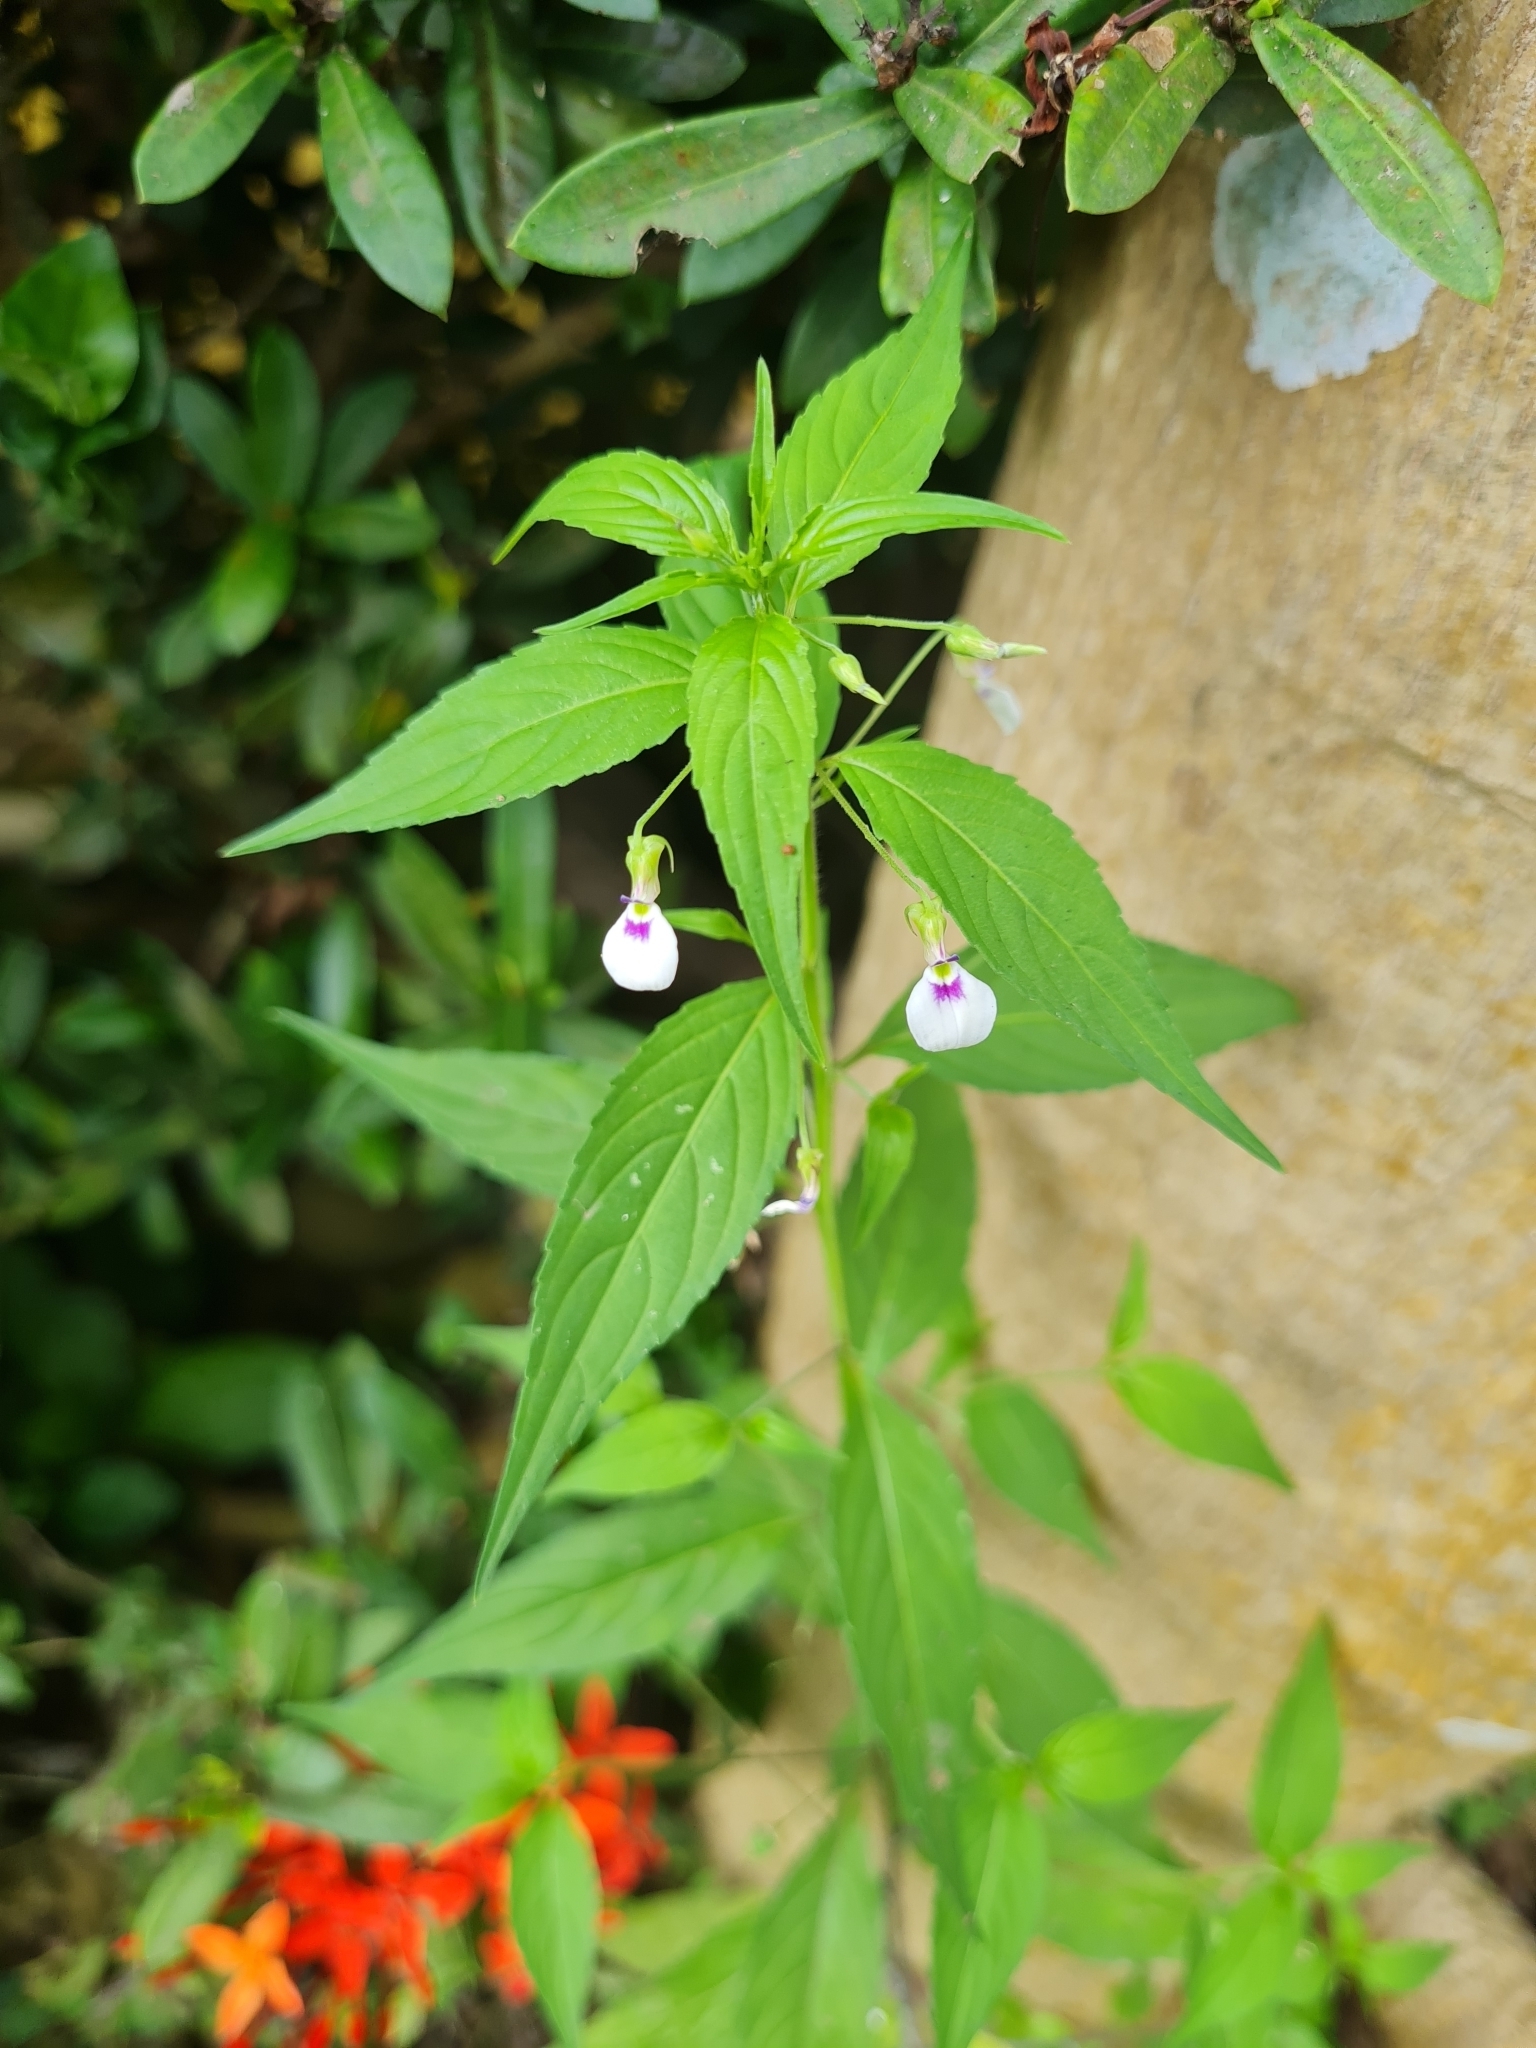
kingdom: Plantae
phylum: Tracheophyta
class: Magnoliopsida
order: Malpighiales
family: Violaceae
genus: Pombalia
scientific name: Pombalia attenuata
